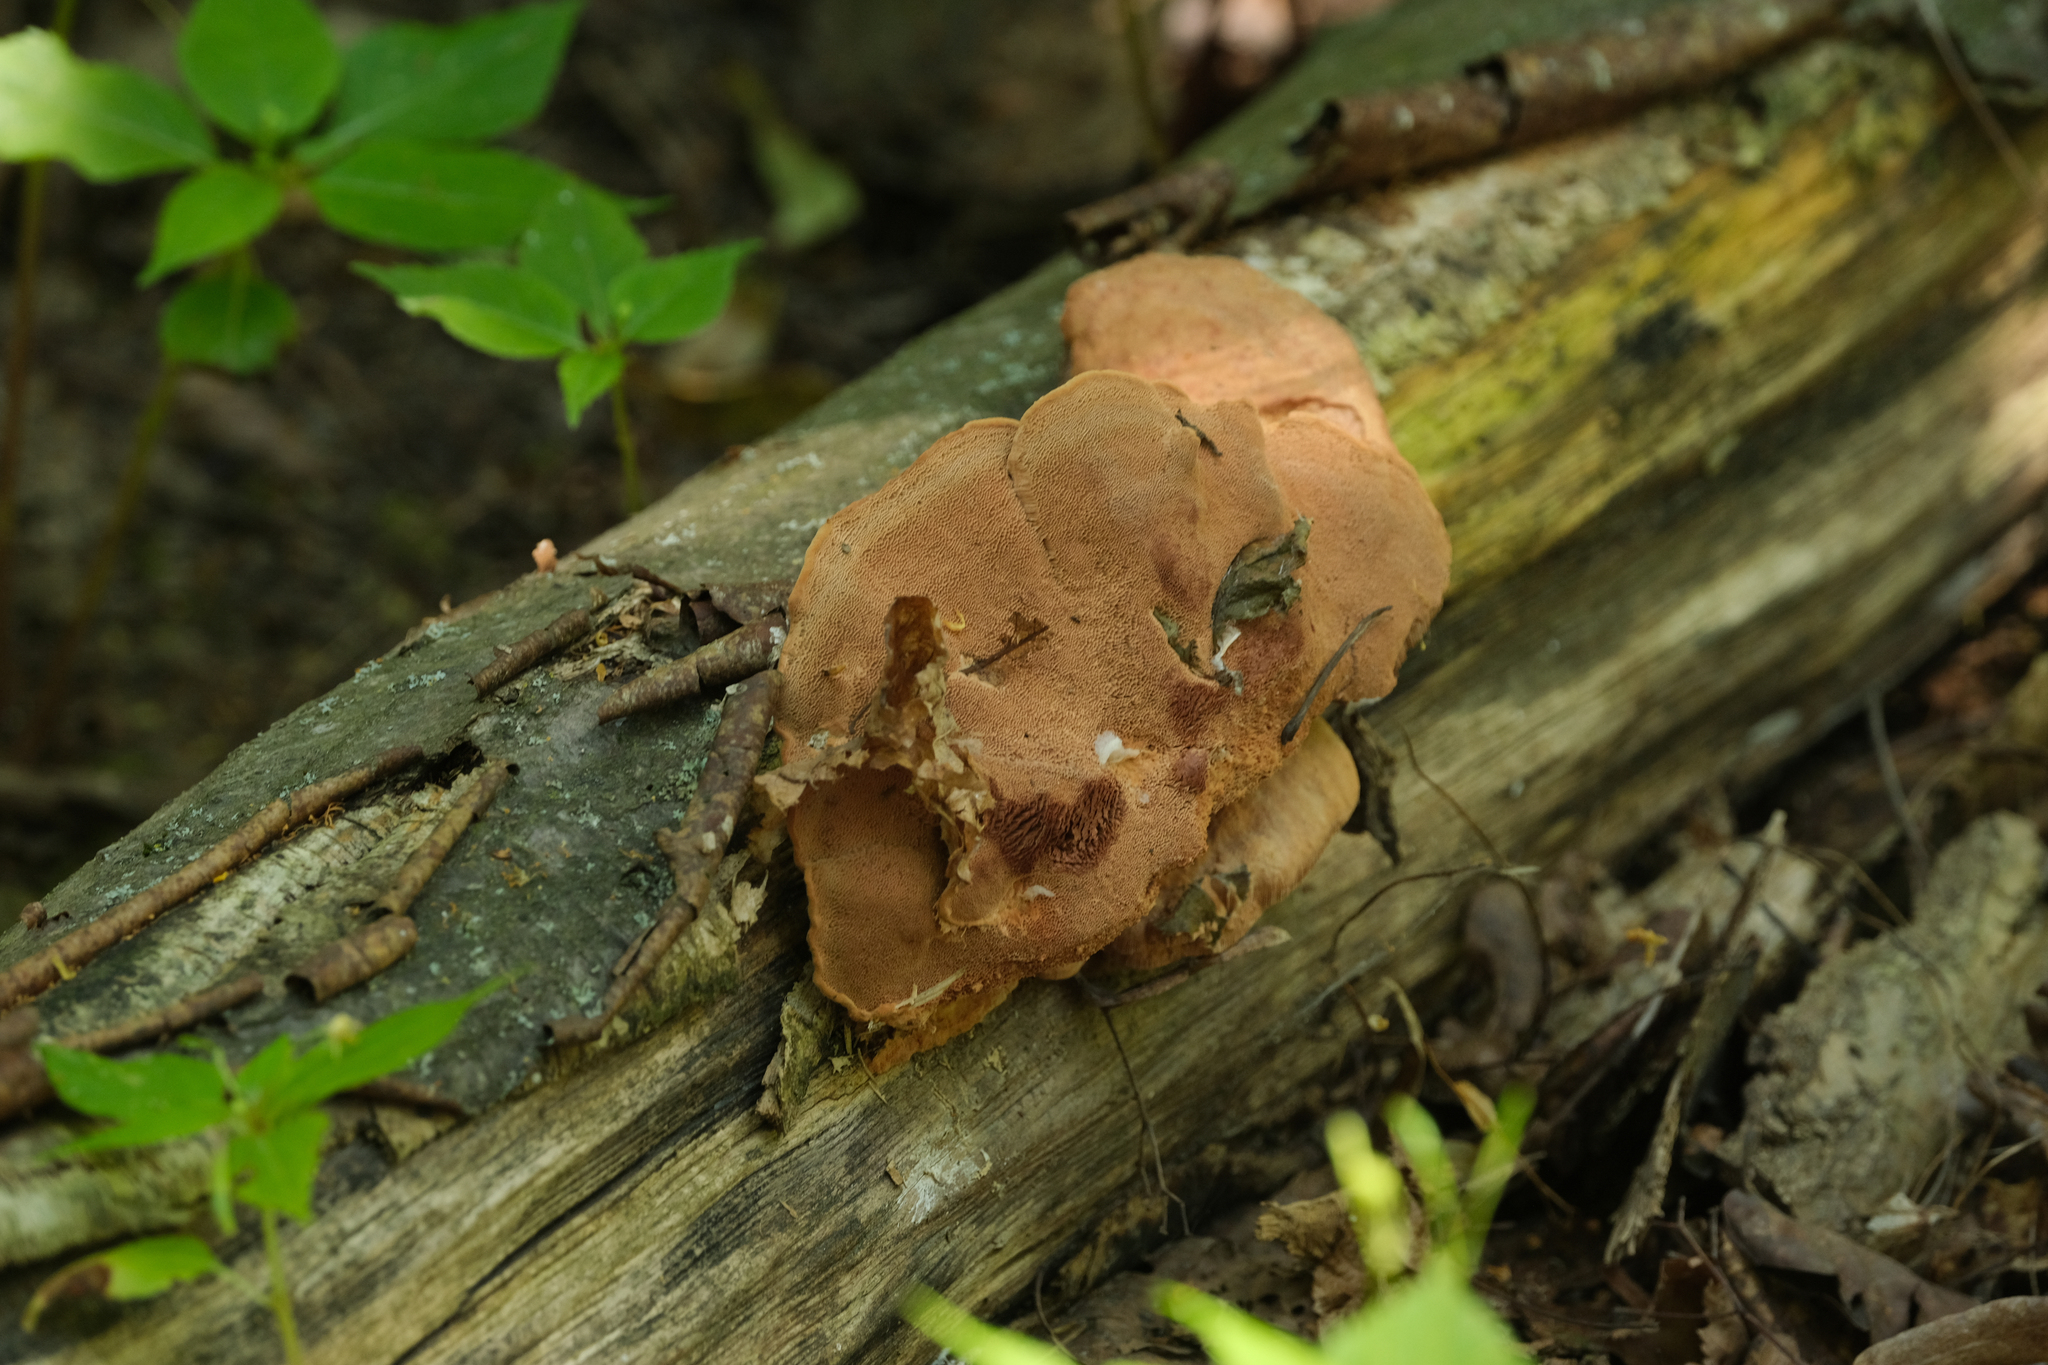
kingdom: Fungi
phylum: Basidiomycota
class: Agaricomycetes
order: Polyporales
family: Phanerochaetaceae
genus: Hapalopilus
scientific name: Hapalopilus rutilans
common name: Tender nesting polypore
